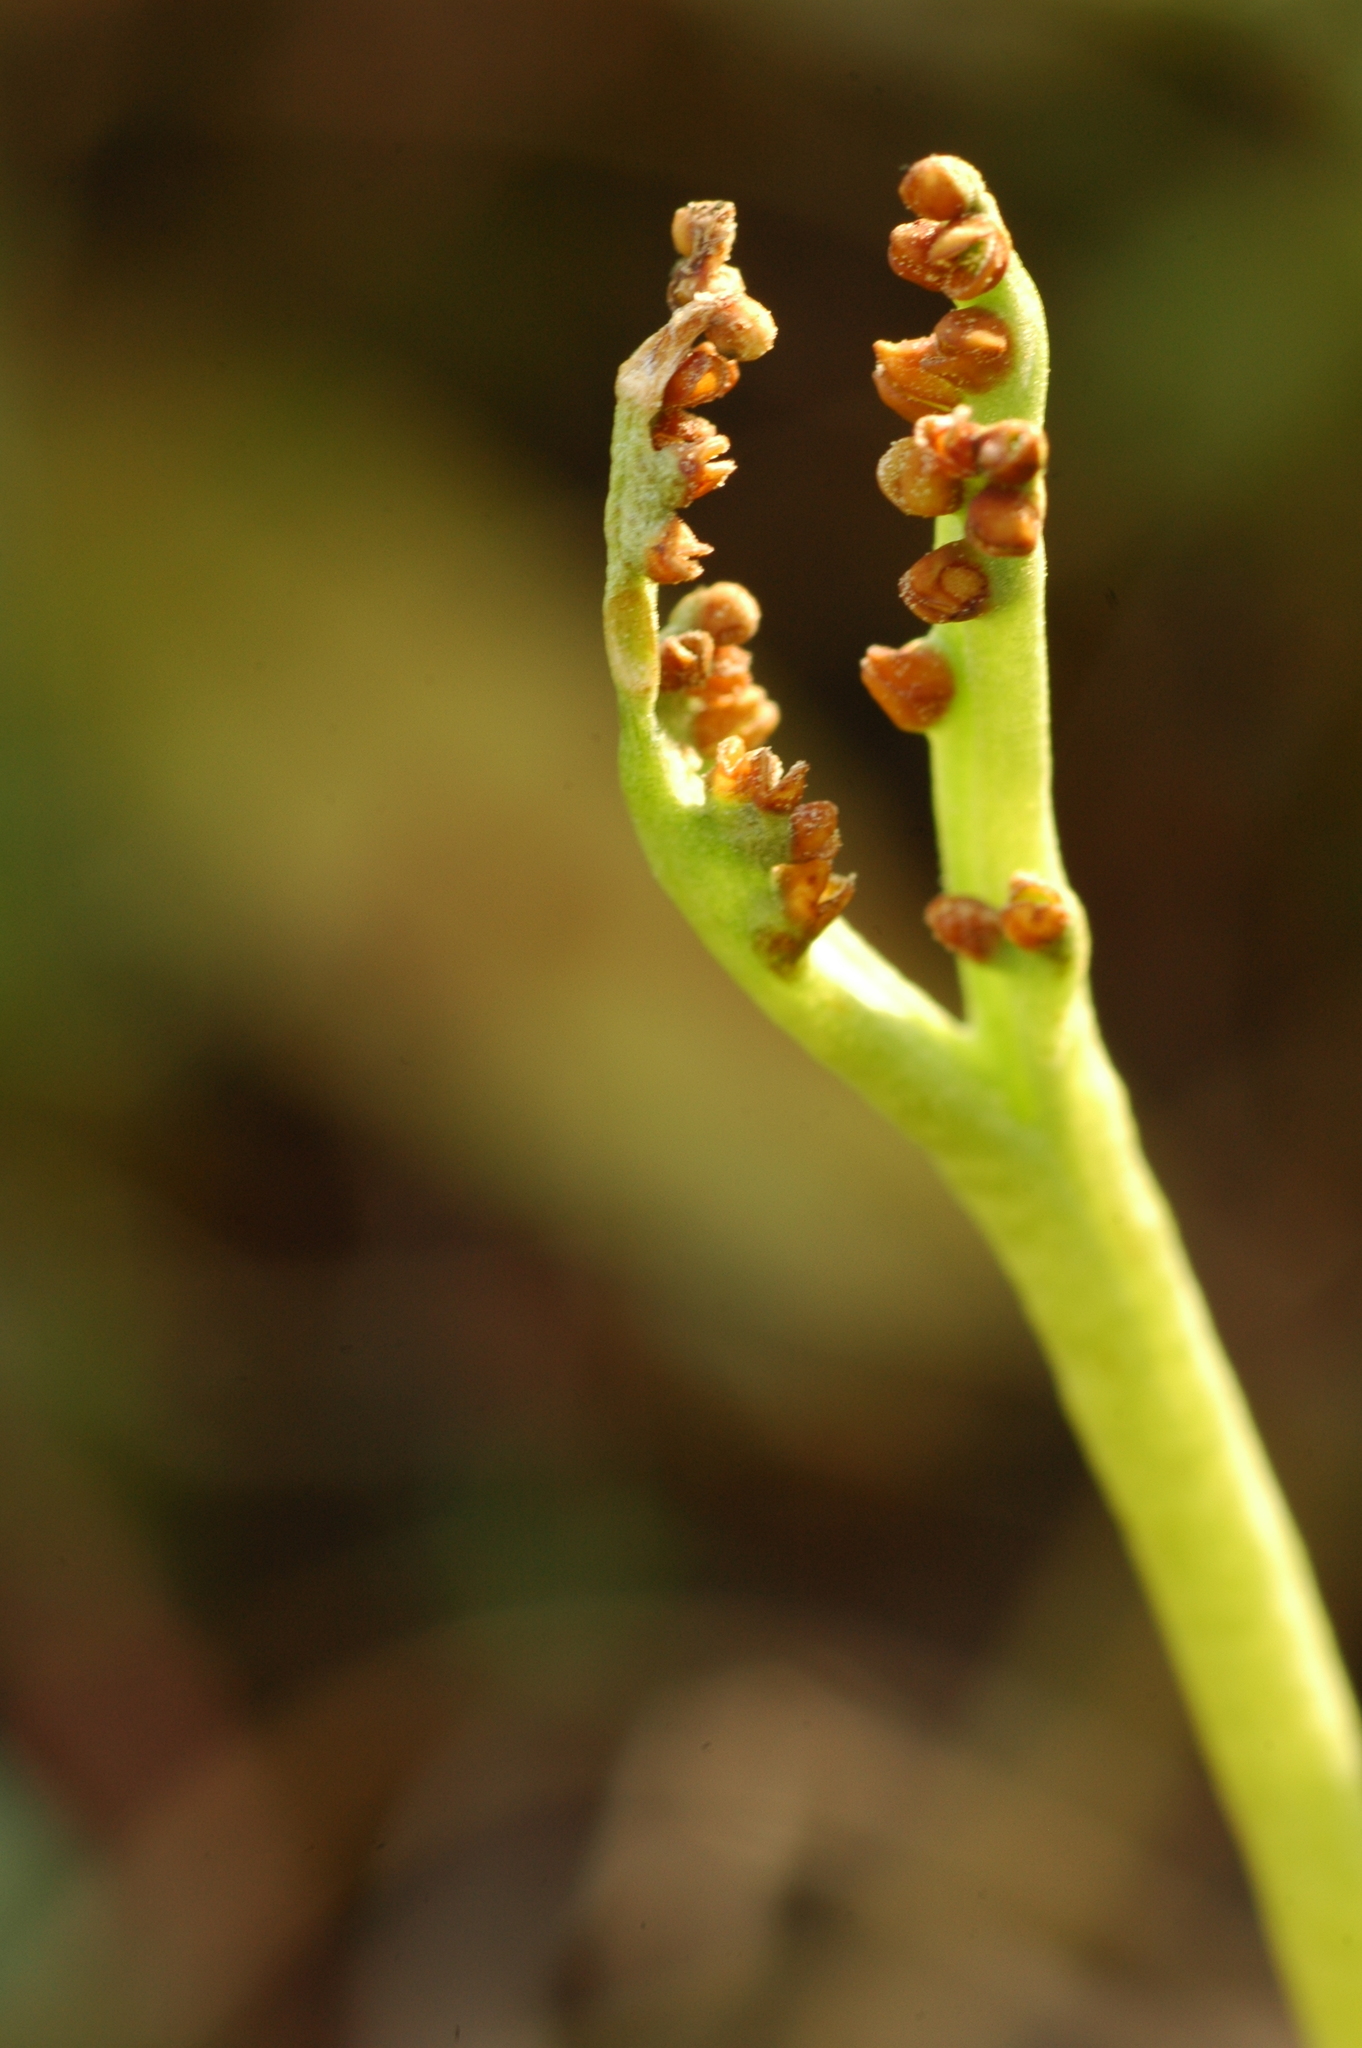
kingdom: Plantae
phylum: Tracheophyta
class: Polypodiopsida
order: Ophioglossales
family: Ophioglossaceae
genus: Botrychium
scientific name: Botrychium paradoxum
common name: Paradox moonwort
